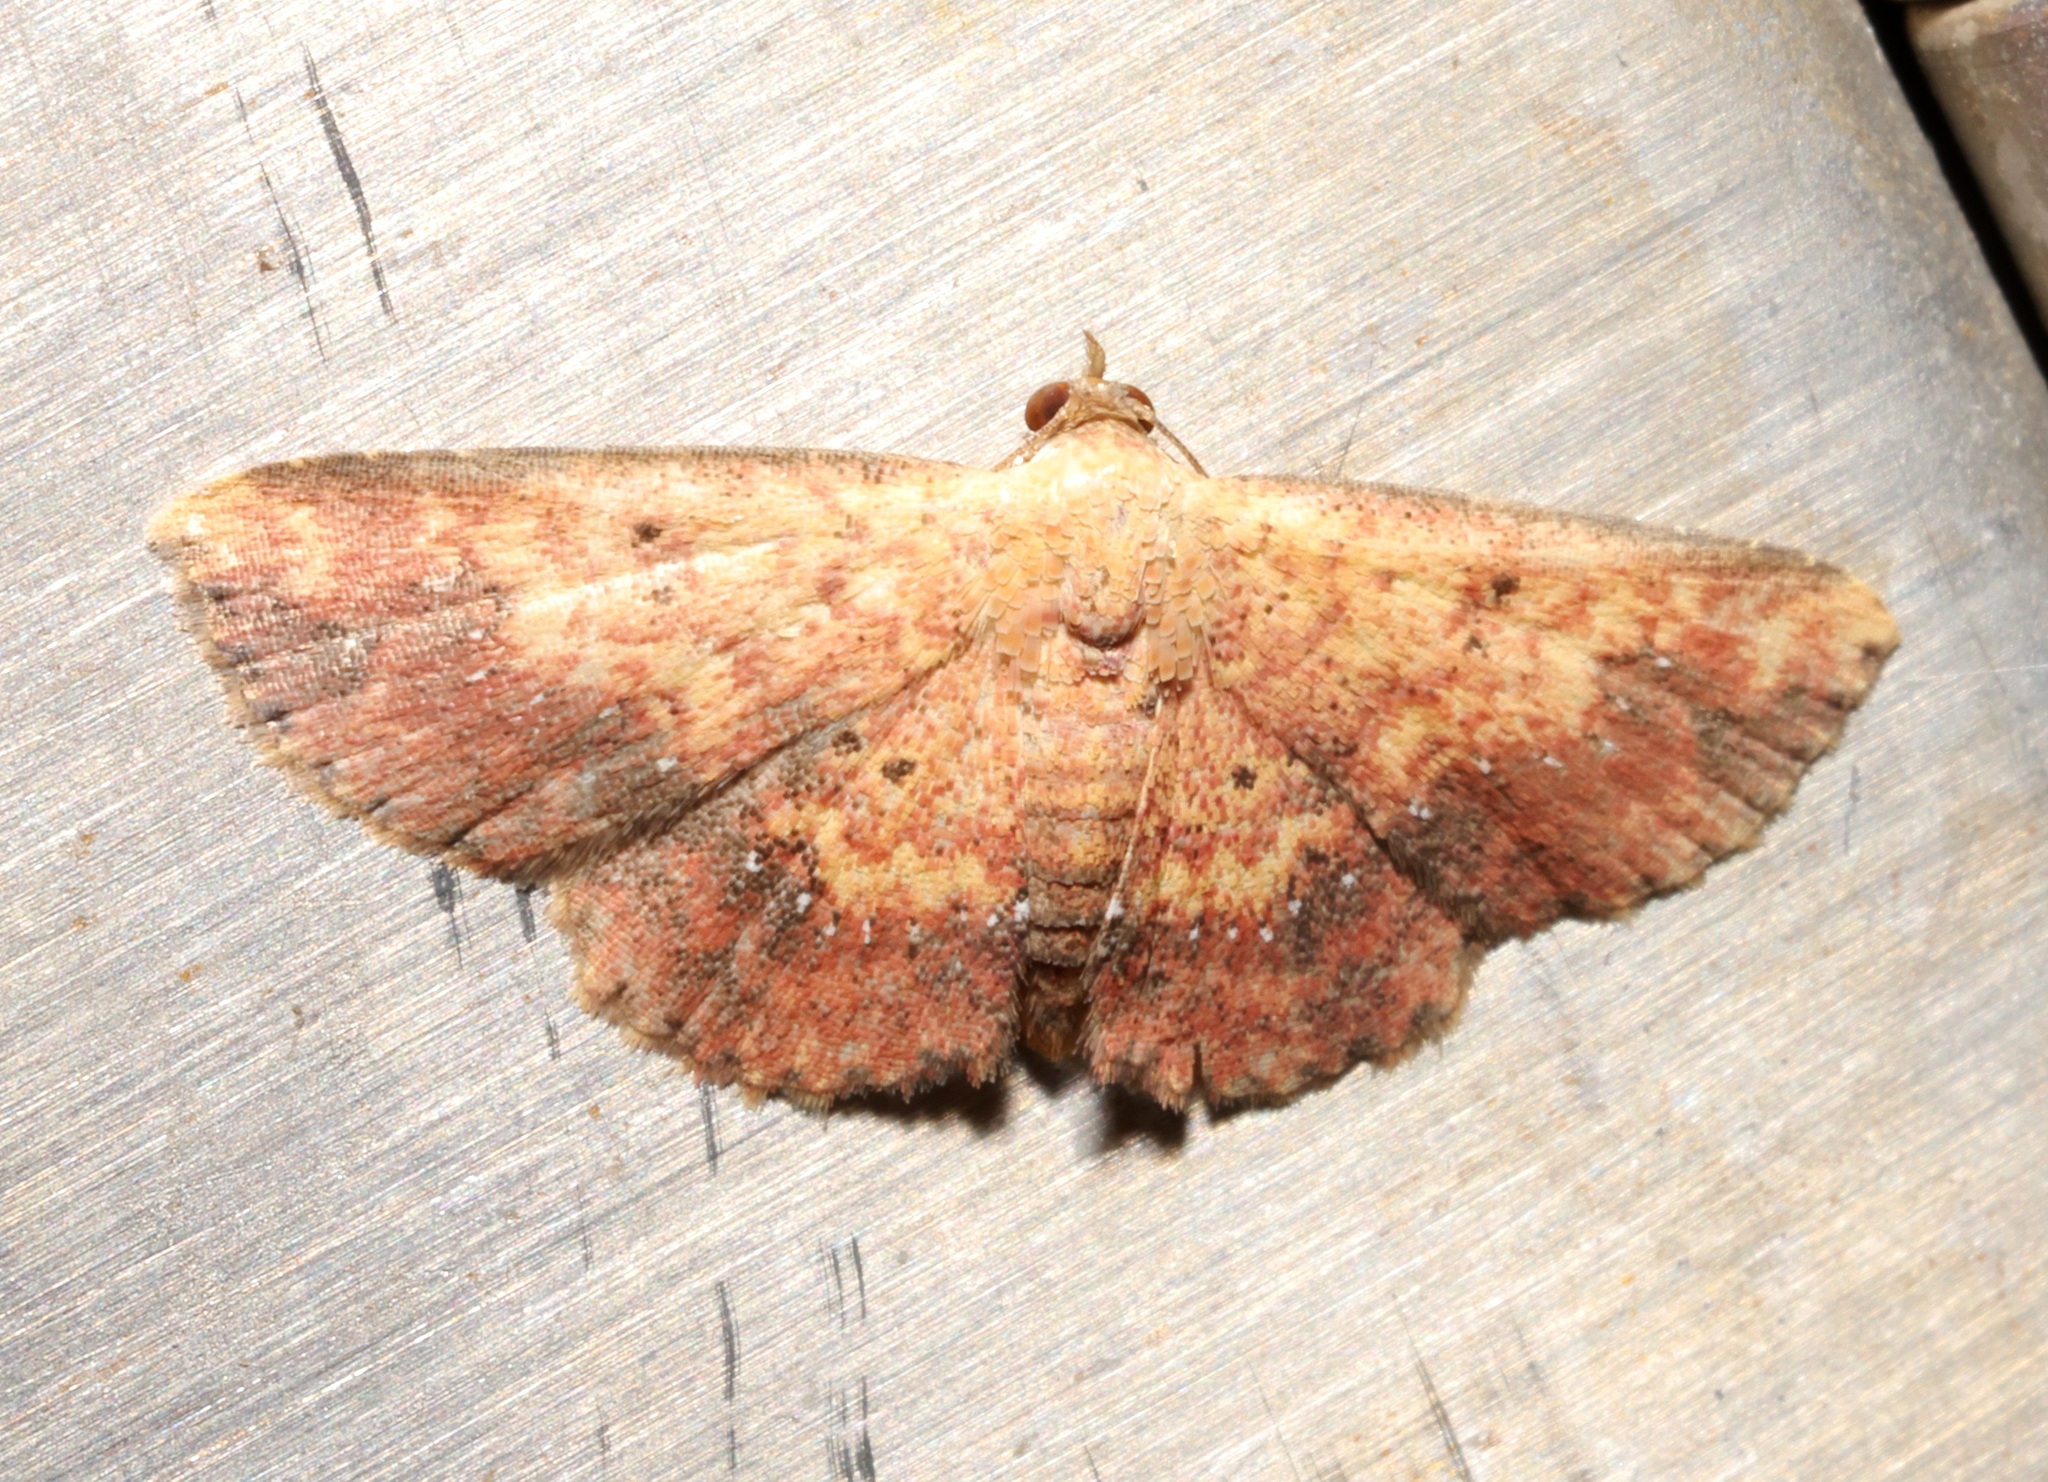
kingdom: Animalia
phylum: Arthropoda
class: Insecta
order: Lepidoptera
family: Noctuidae
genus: Cerynea
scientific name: Cerynea ustula
